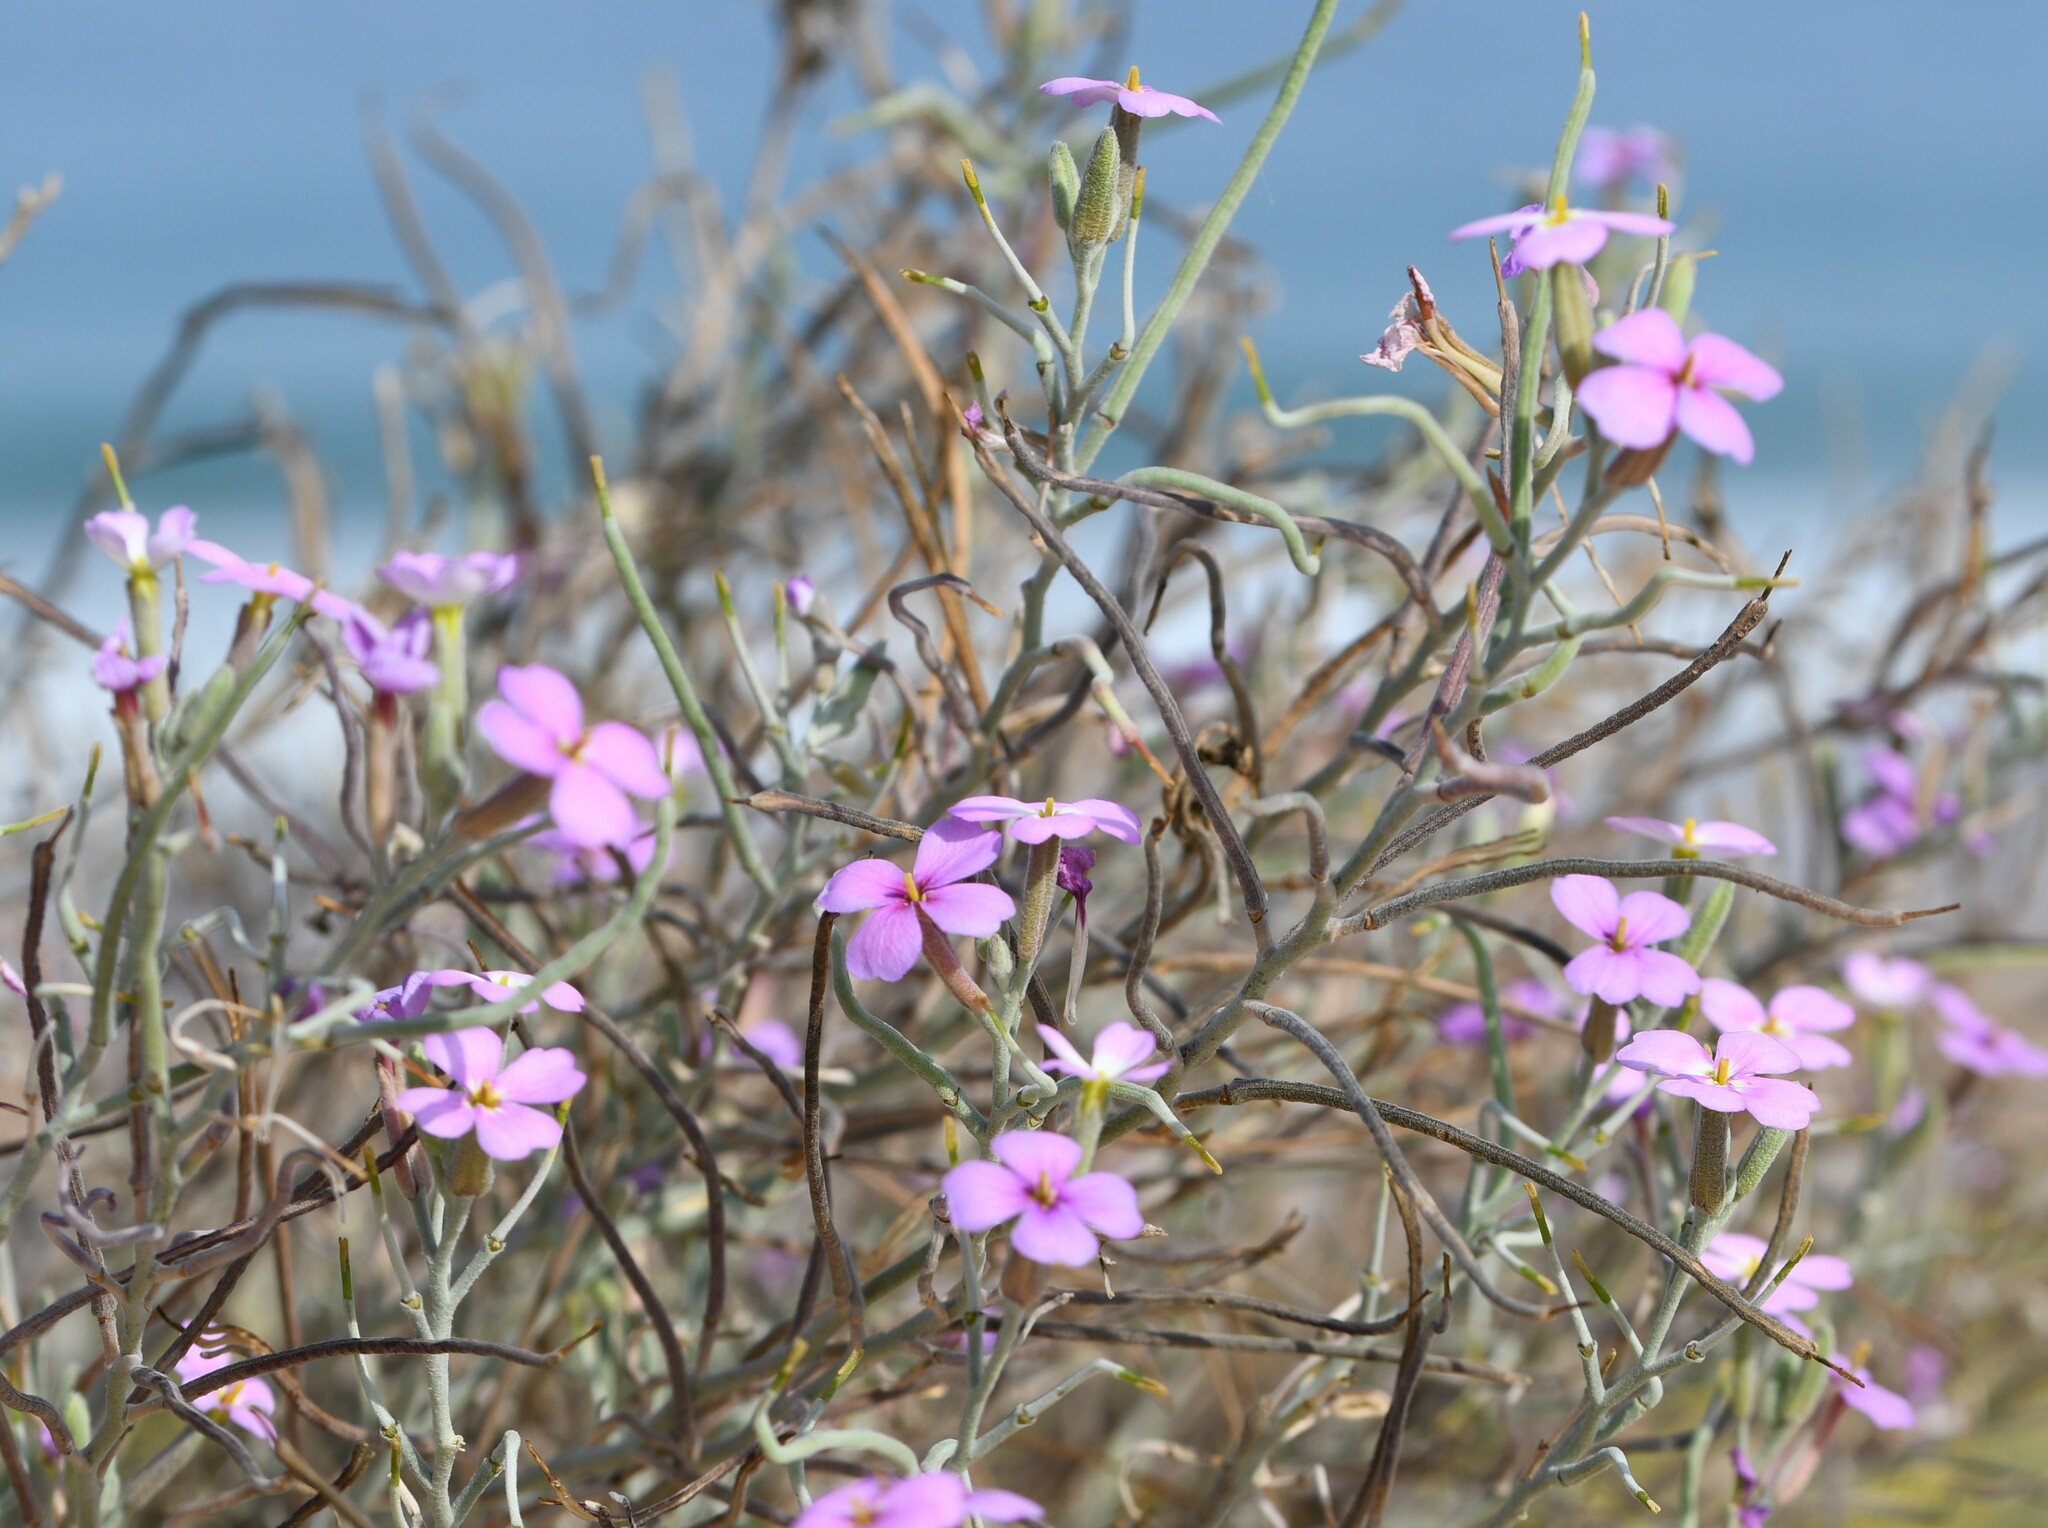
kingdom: Plantae
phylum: Tracheophyta
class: Magnoliopsida
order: Brassicales
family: Brassicaceae
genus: Marcuskochia
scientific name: Marcuskochia littorea
